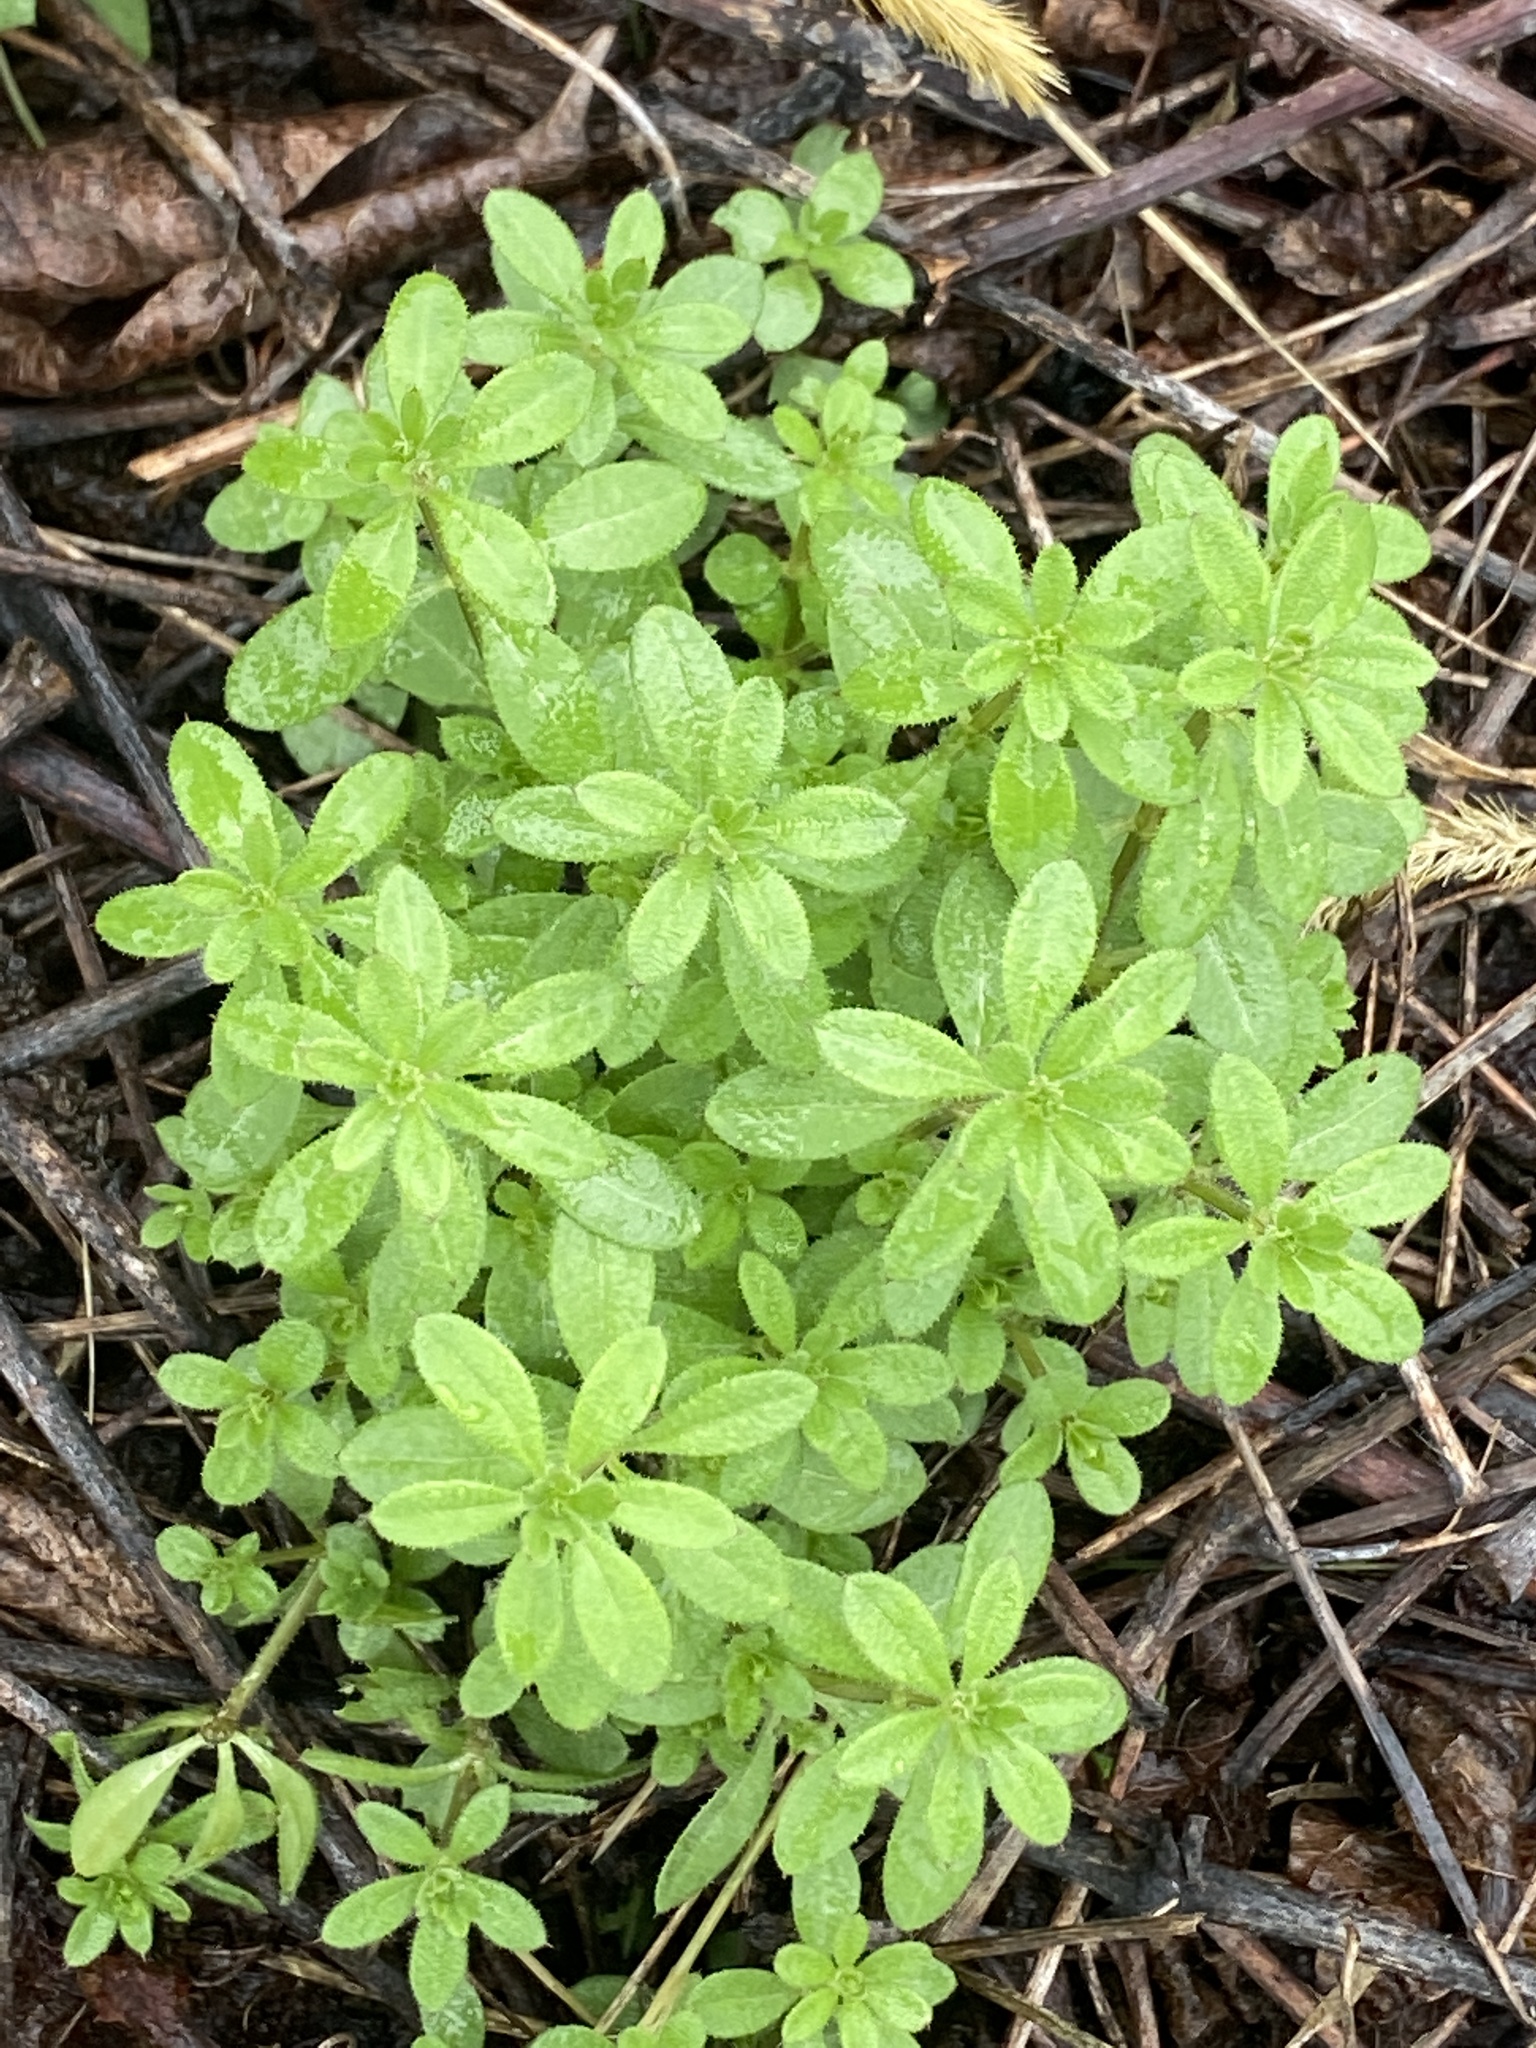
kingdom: Plantae
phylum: Tracheophyta
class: Magnoliopsida
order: Gentianales
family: Rubiaceae
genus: Galium
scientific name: Galium aparine
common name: Cleavers
